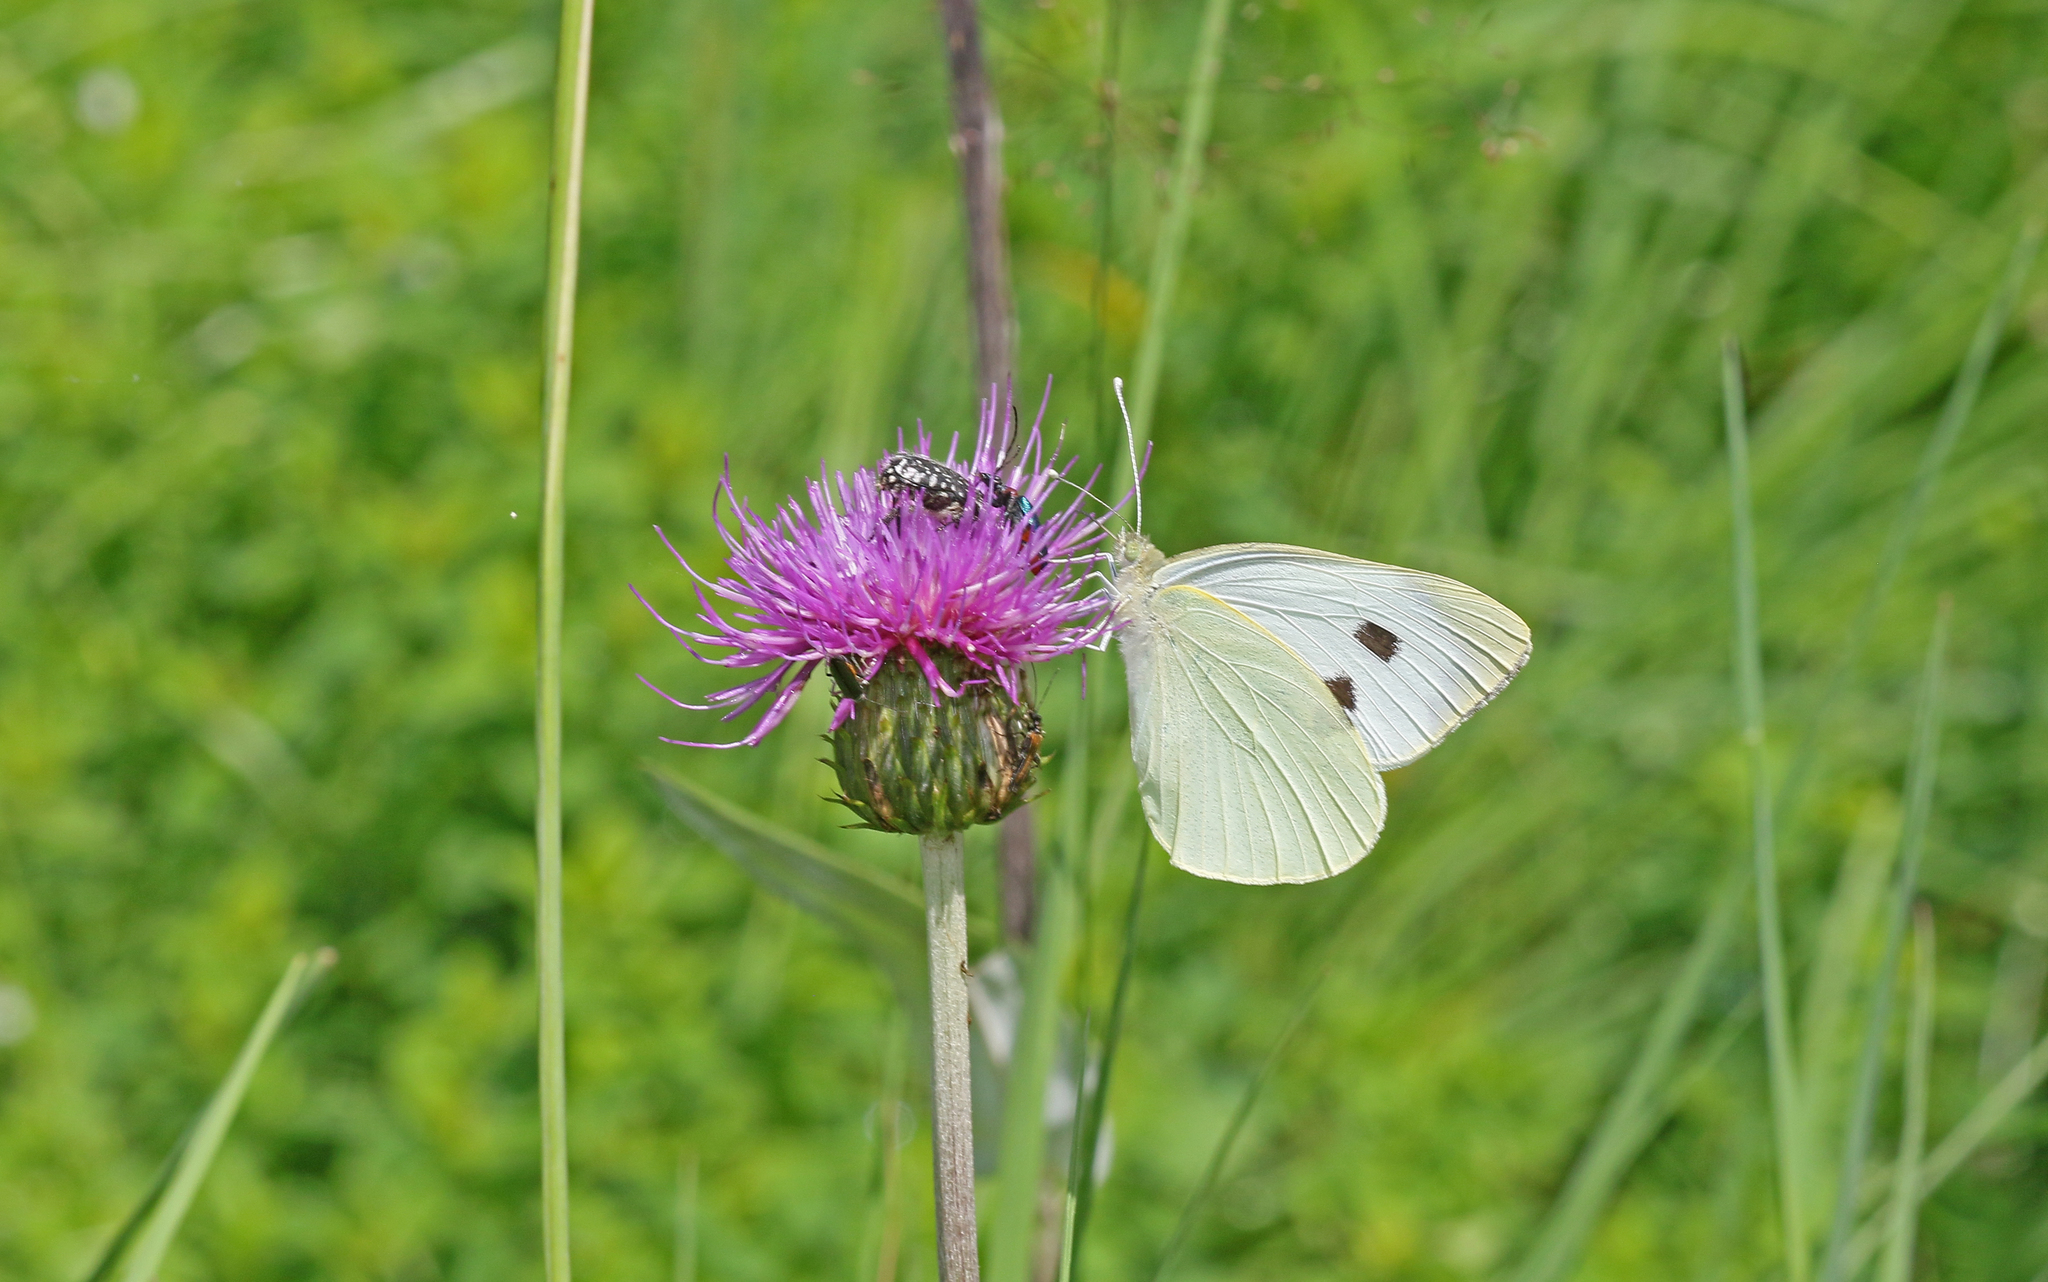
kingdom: Animalia
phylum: Arthropoda
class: Insecta
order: Lepidoptera
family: Pieridae
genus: Pieris
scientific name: Pieris brassicae
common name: Large white
